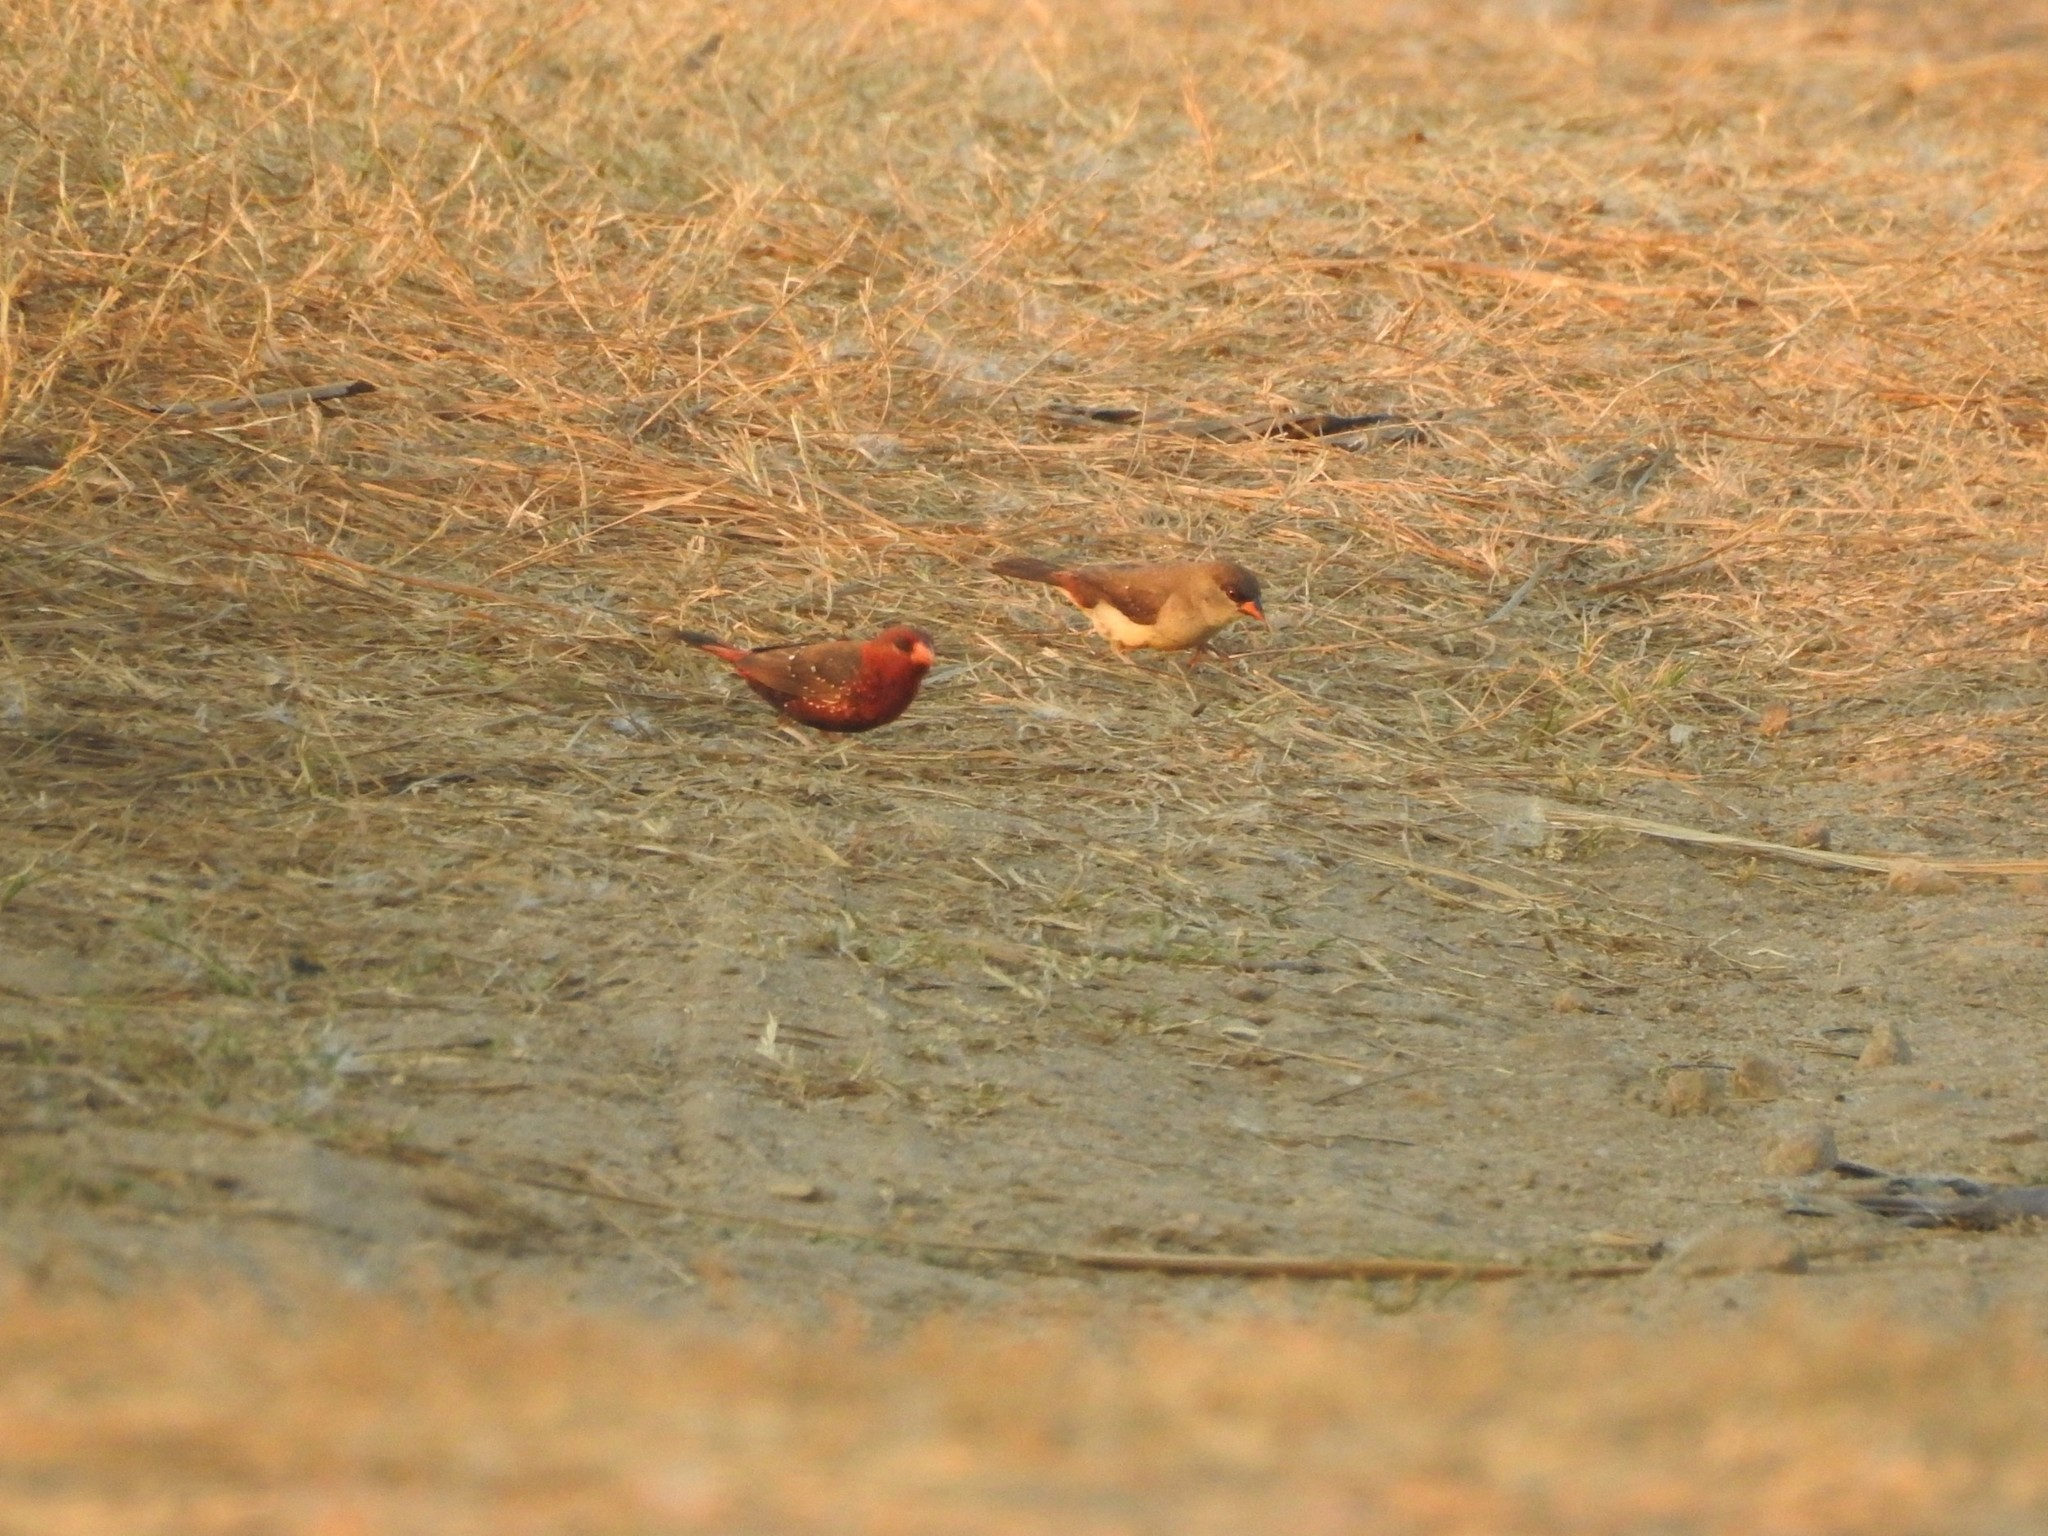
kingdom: Animalia
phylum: Chordata
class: Aves
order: Passeriformes
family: Estrildidae
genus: Amandava
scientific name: Amandava amandava
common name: Red avadavat
